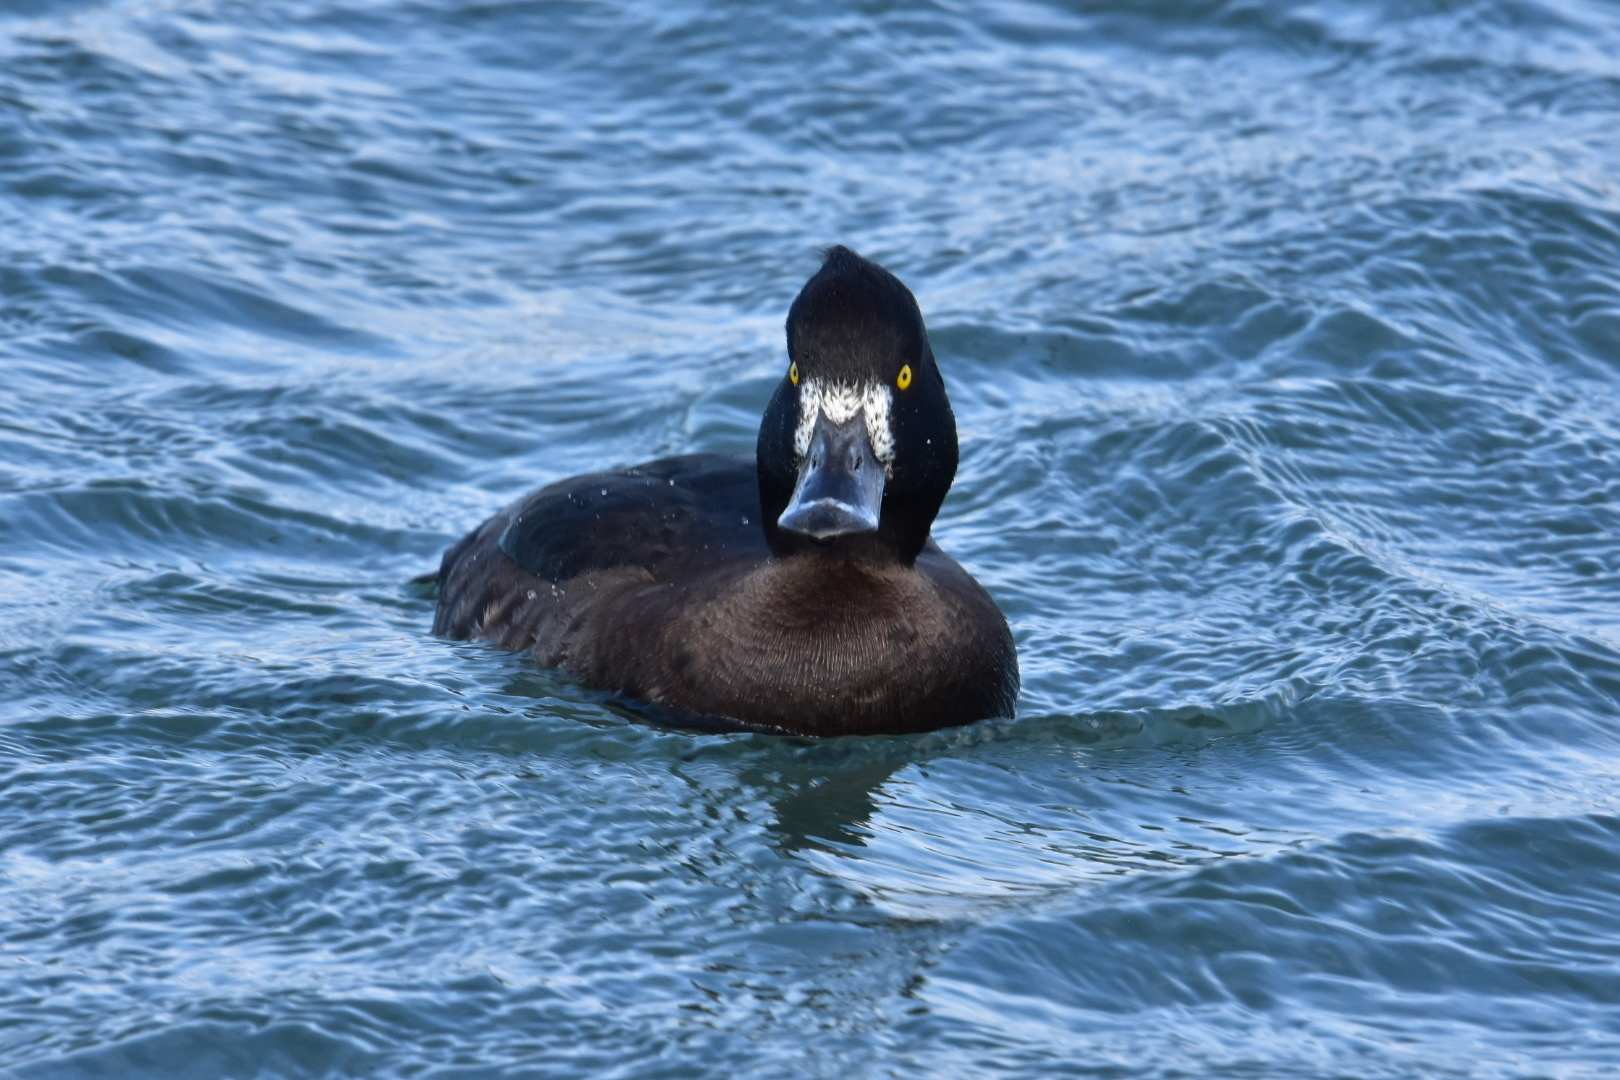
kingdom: Animalia
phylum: Chordata
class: Aves
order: Anseriformes
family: Anatidae
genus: Aythya
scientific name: Aythya fuligula
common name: Tufted duck
